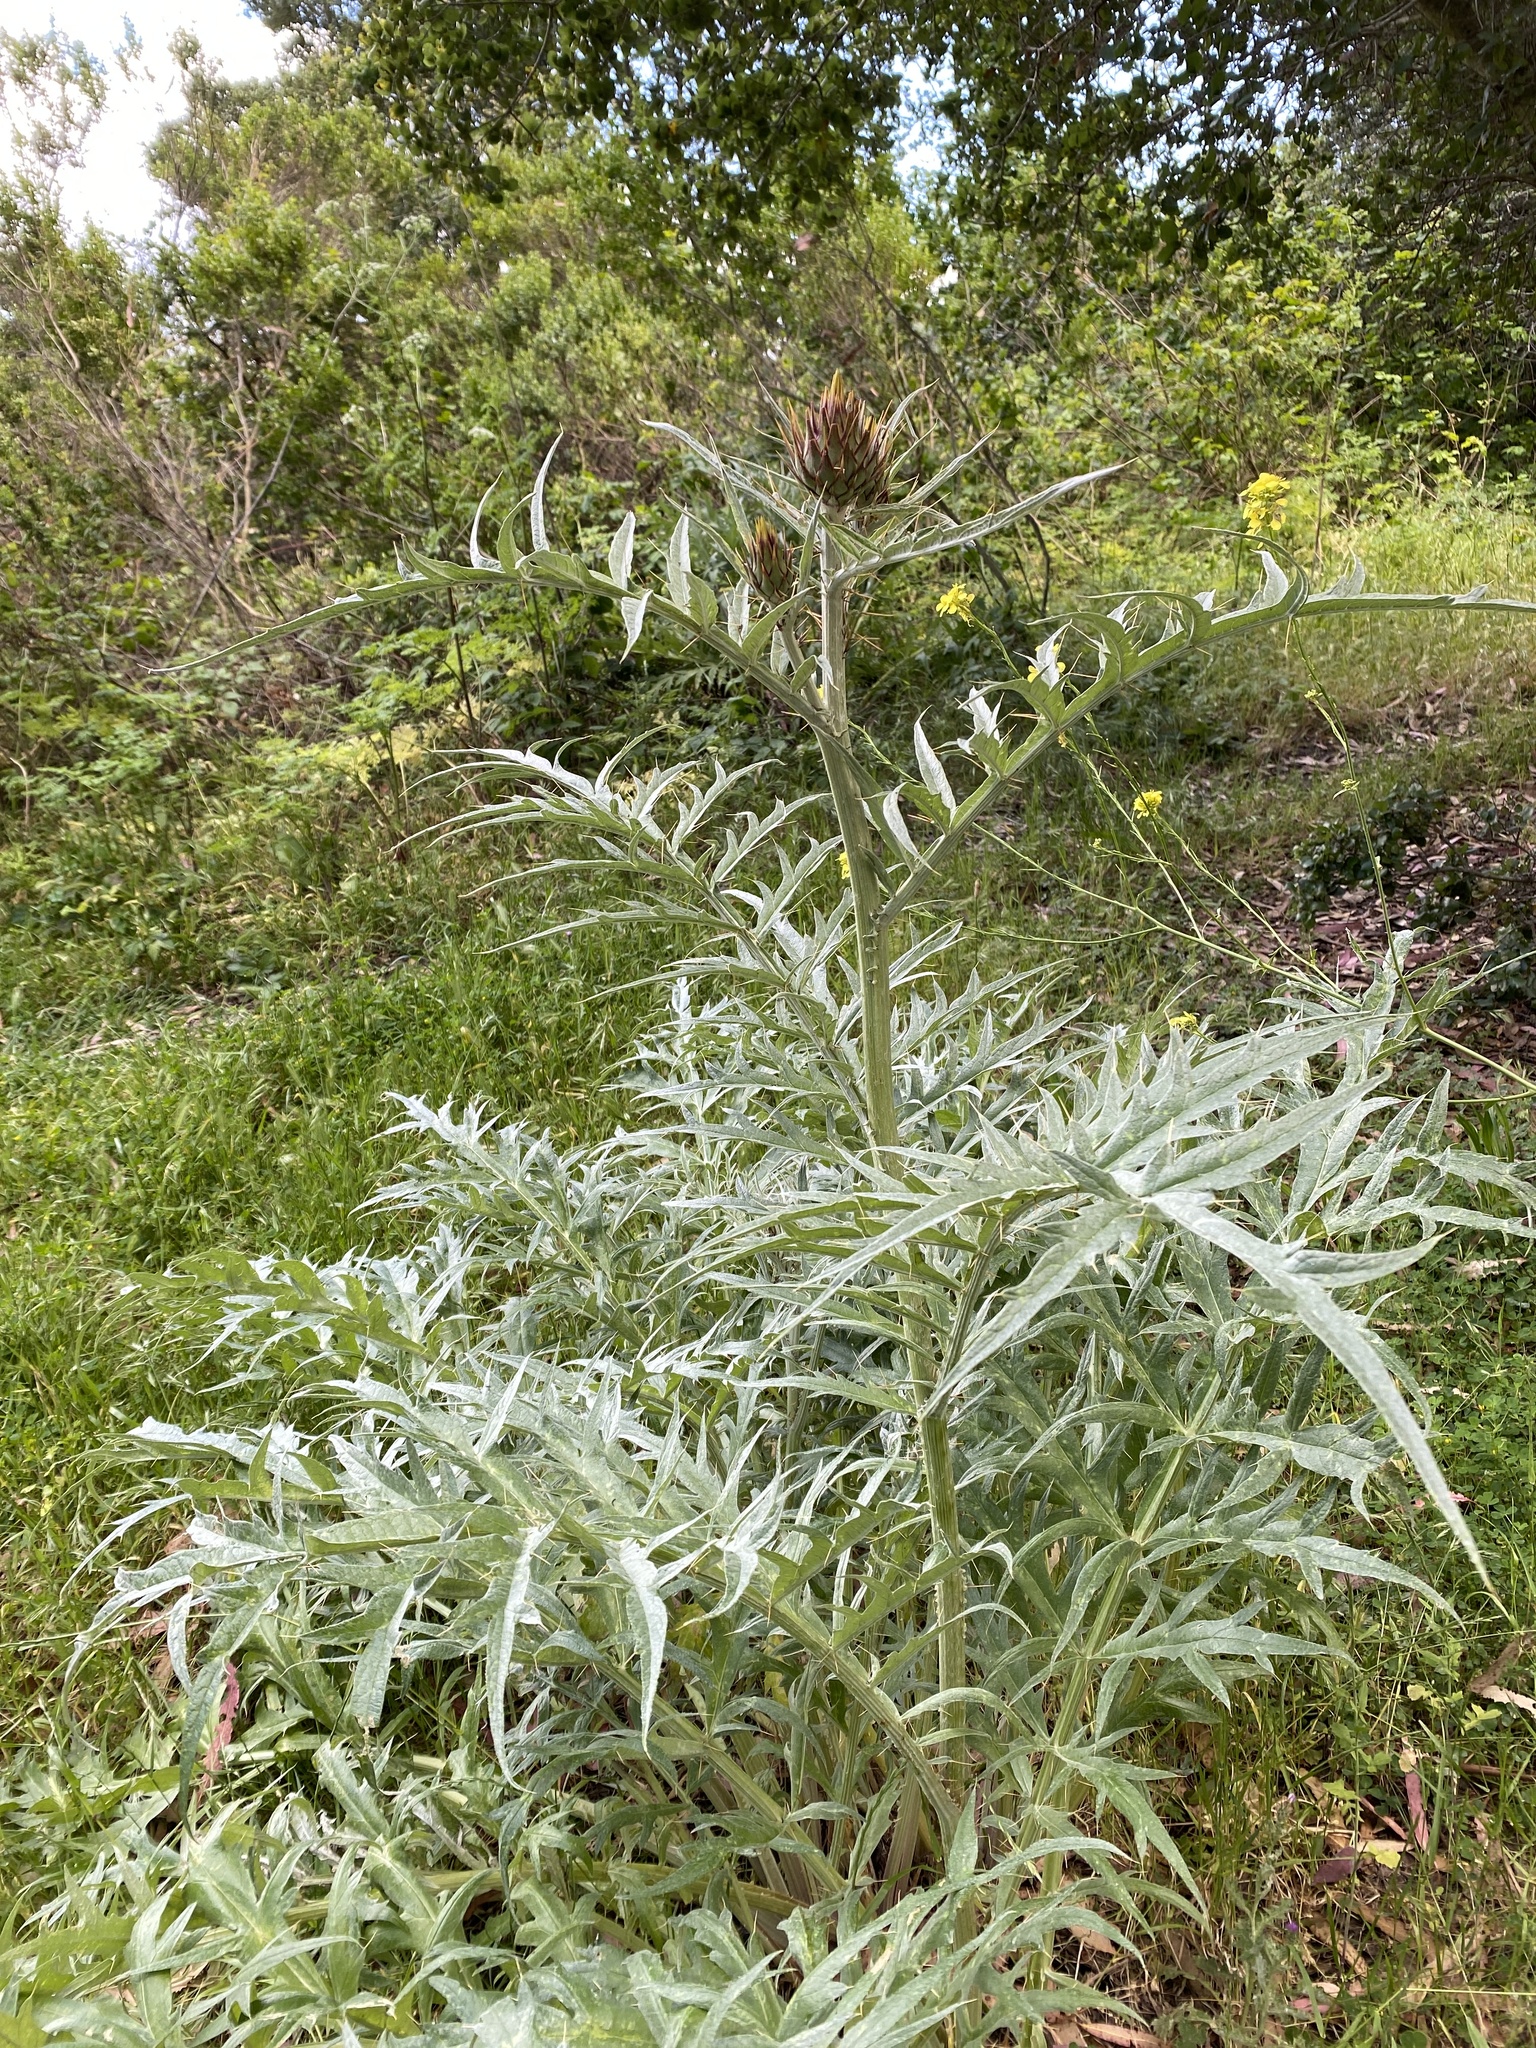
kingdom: Plantae
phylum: Tracheophyta
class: Magnoliopsida
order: Asterales
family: Asteraceae
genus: Cynara
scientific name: Cynara cardunculus
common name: Globe artichoke
